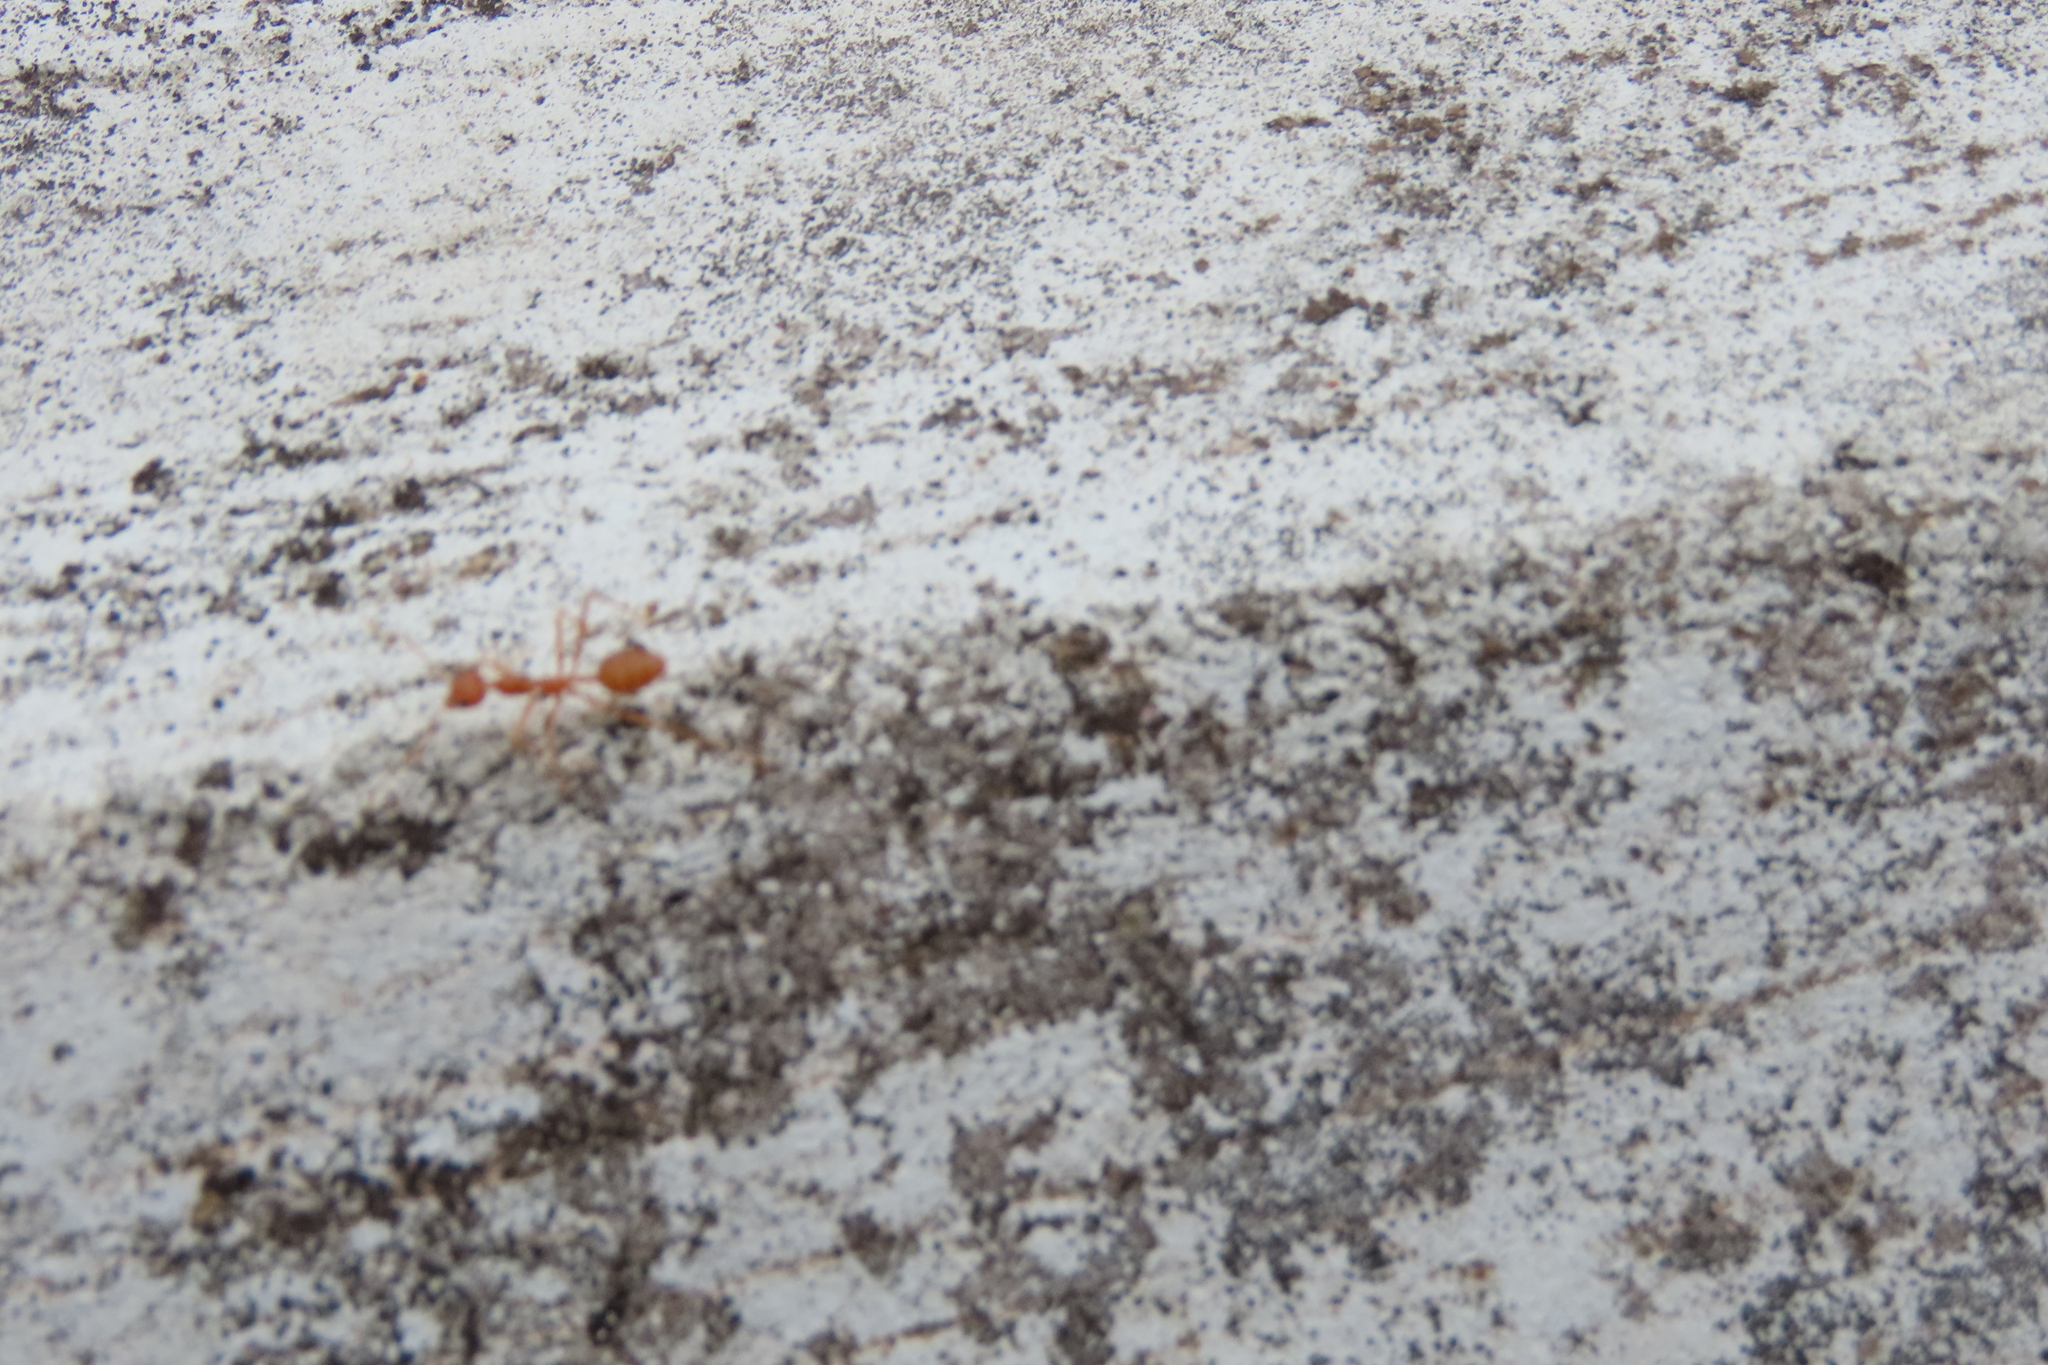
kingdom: Animalia
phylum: Arthropoda
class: Insecta
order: Hymenoptera
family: Formicidae
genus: Oecophylla
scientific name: Oecophylla smaragdina
